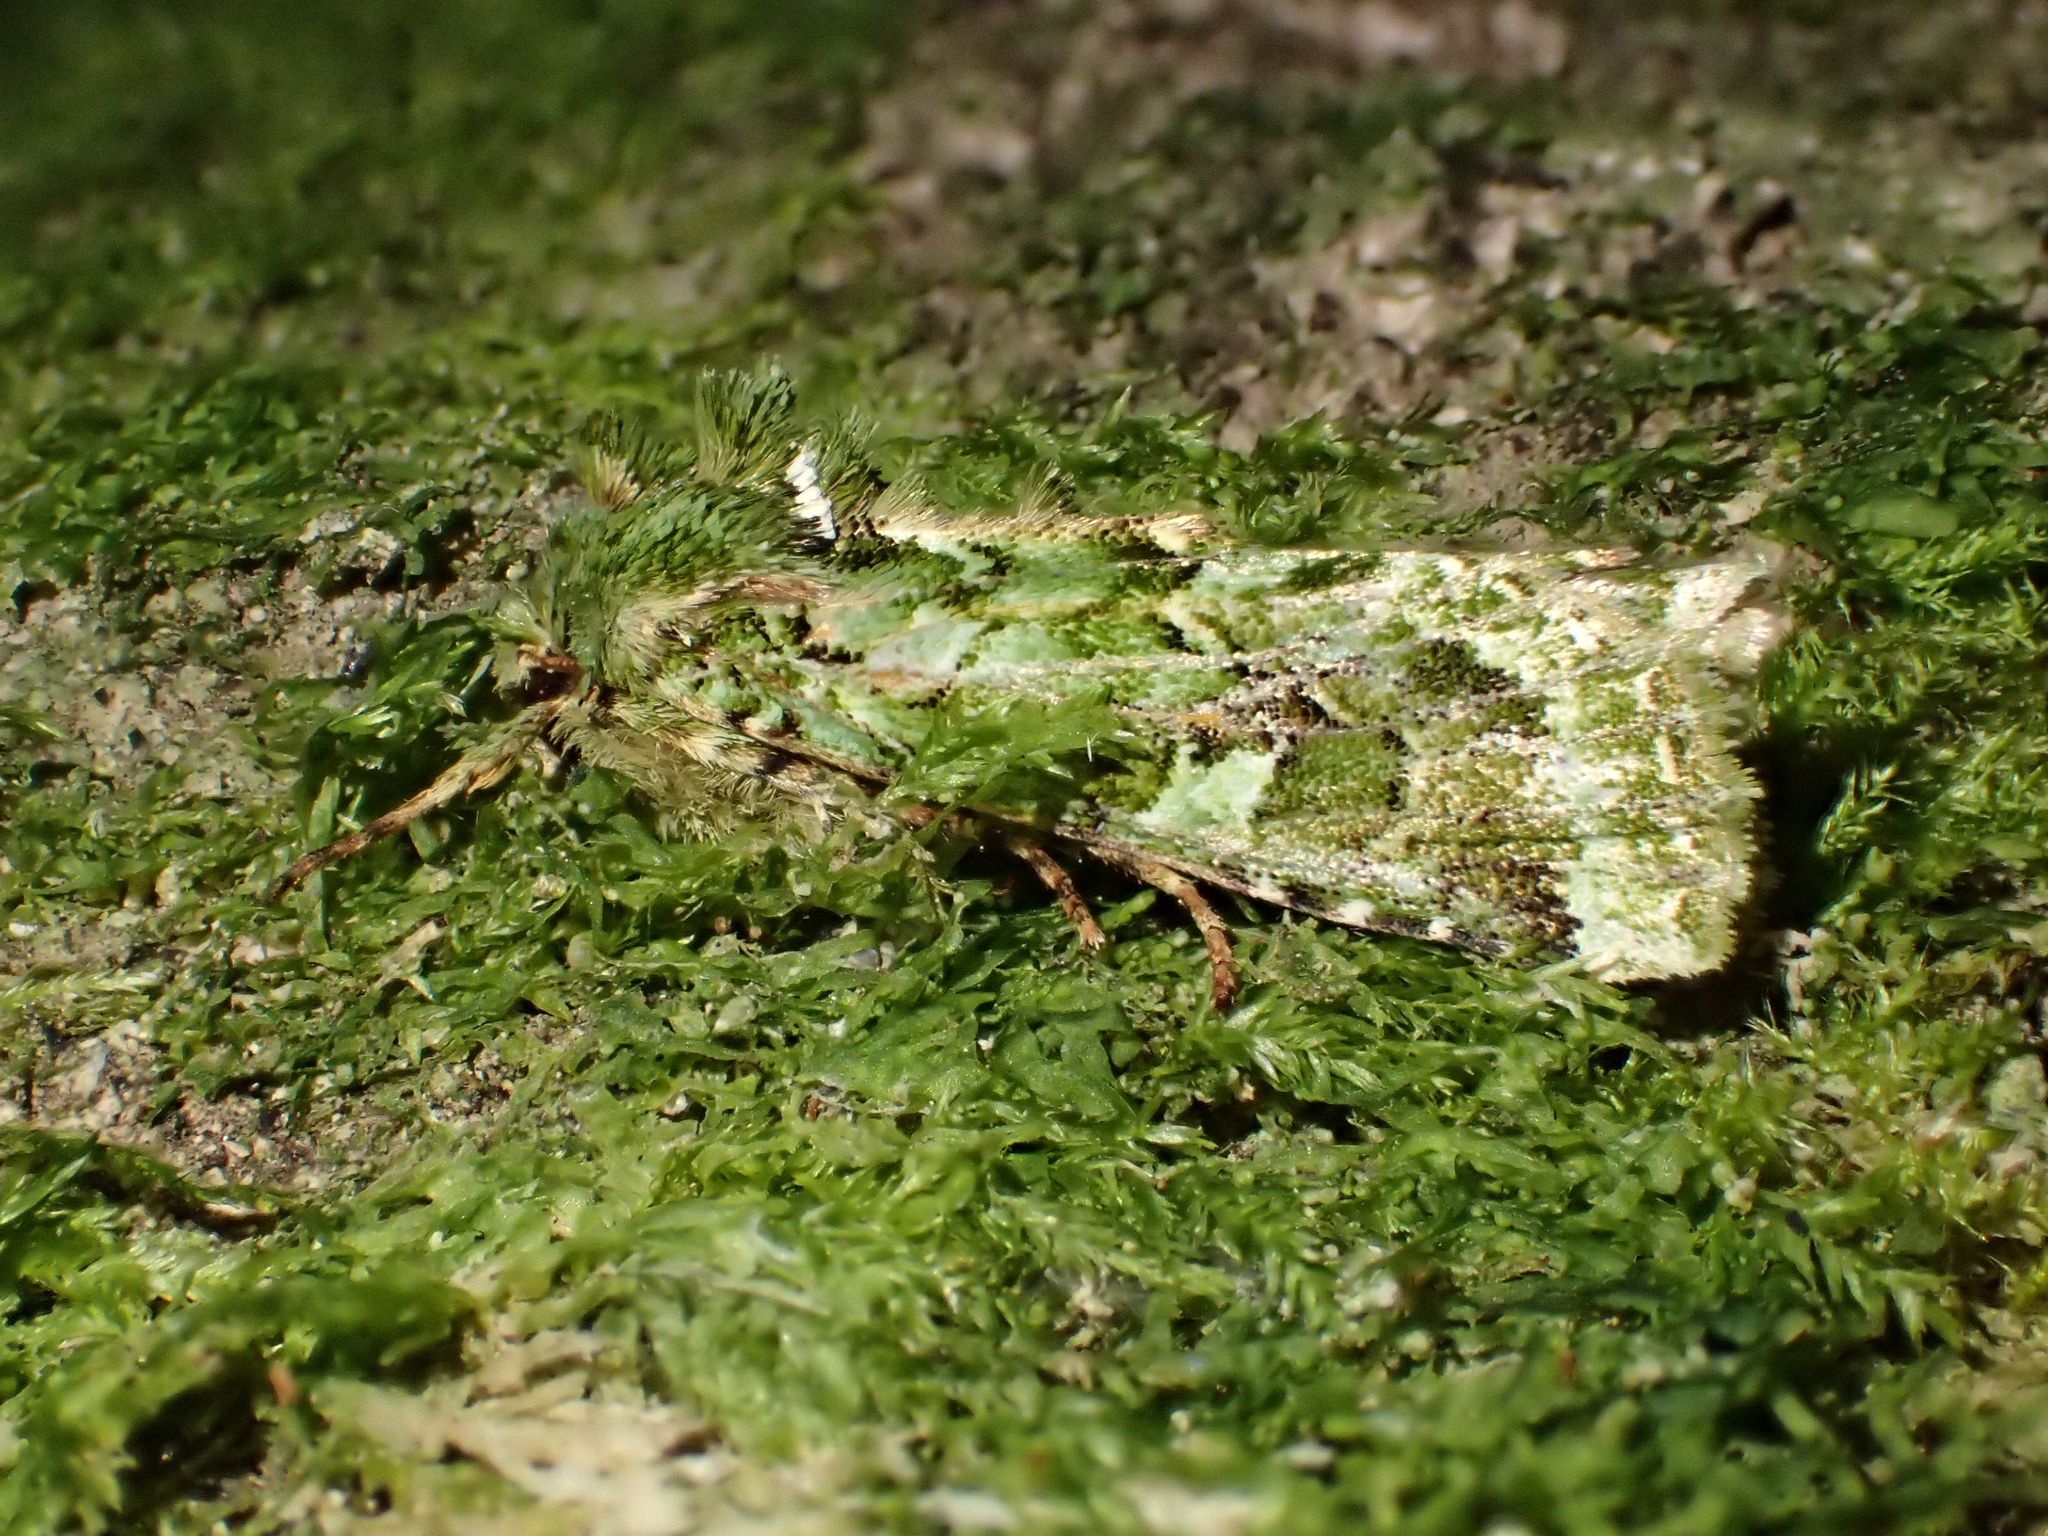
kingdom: Animalia
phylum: Arthropoda
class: Insecta
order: Lepidoptera
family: Noctuidae
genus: Feredayia
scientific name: Feredayia grammosa
